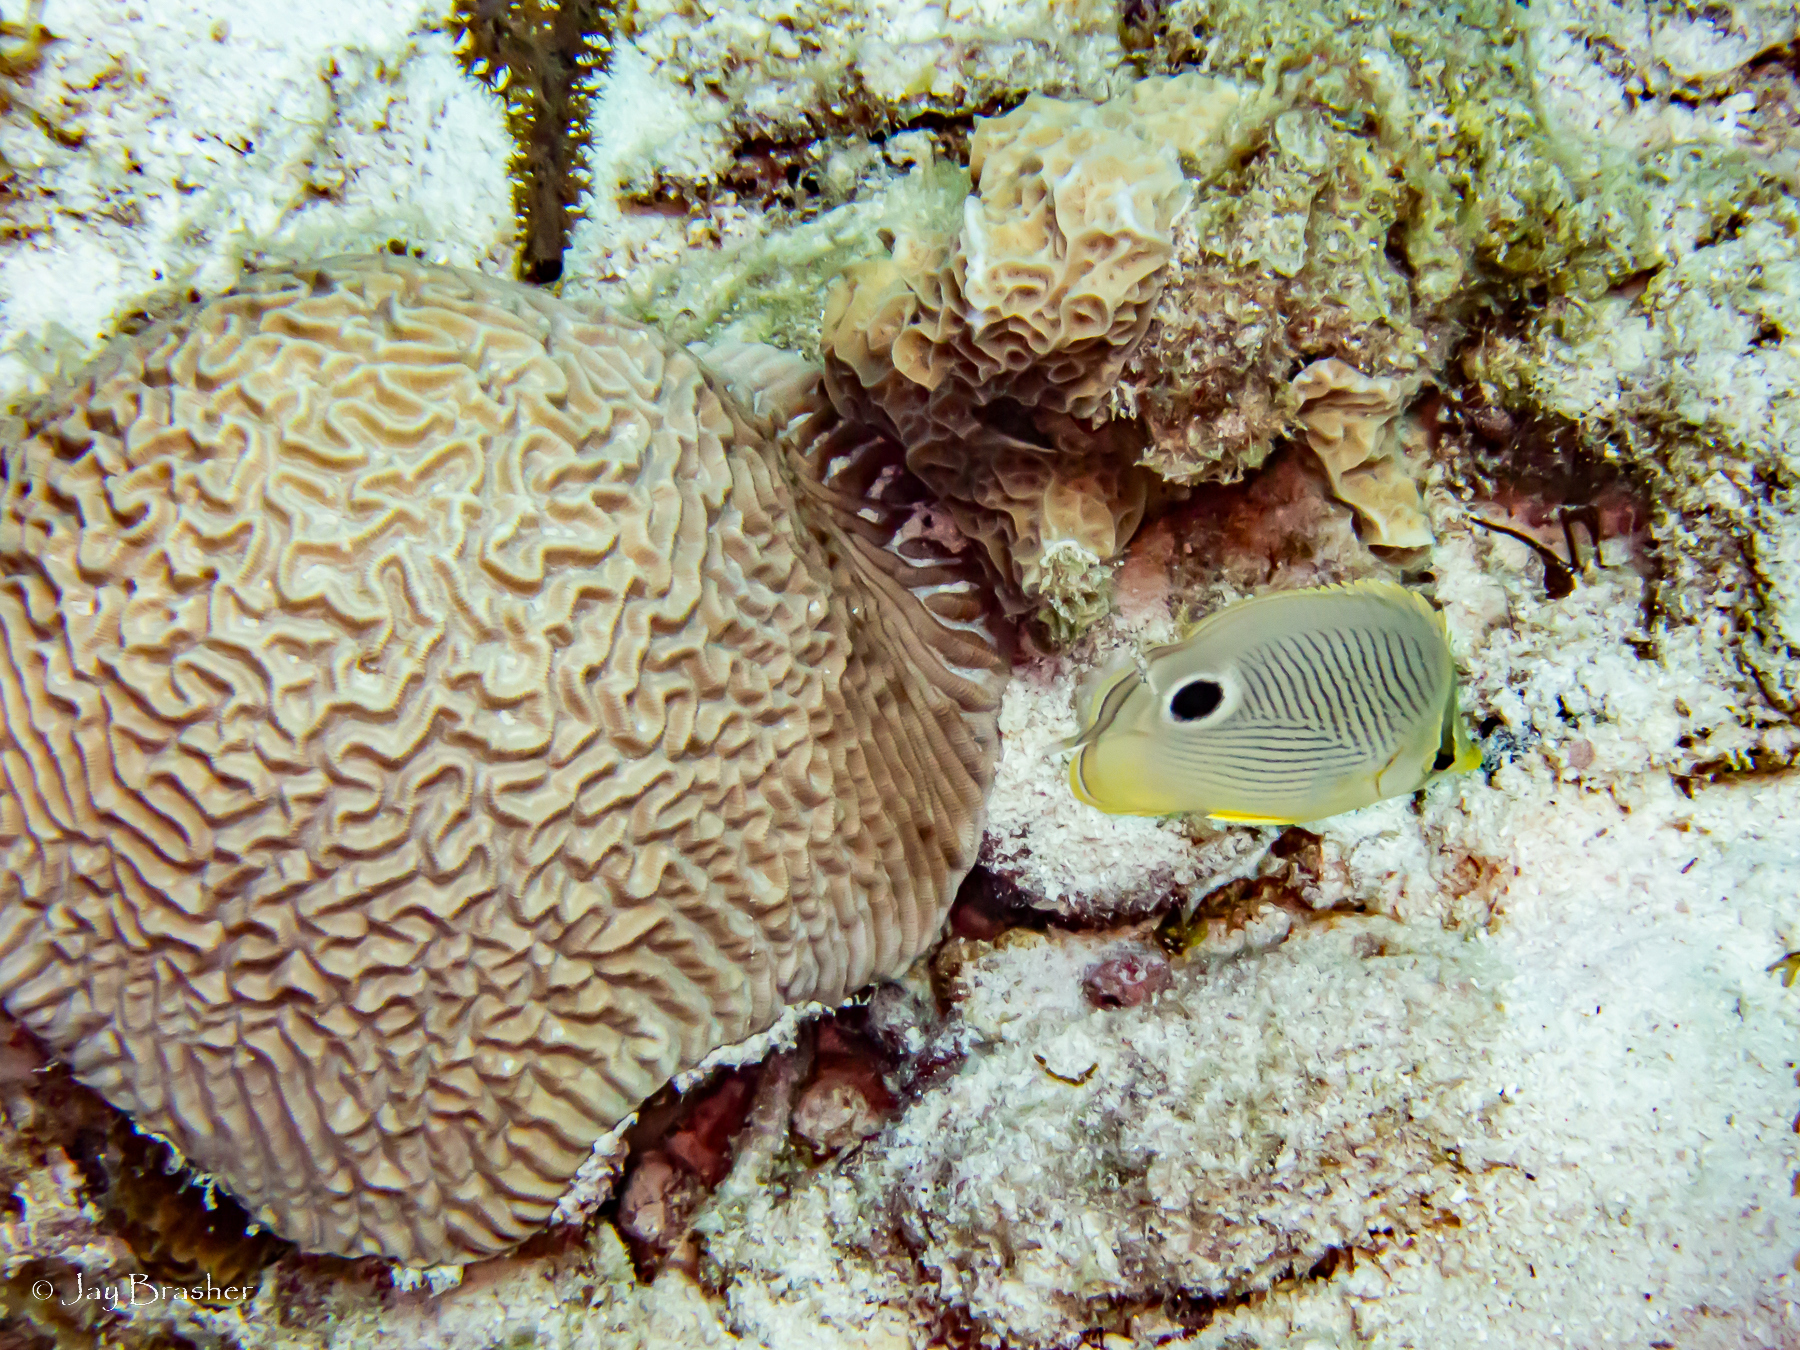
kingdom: Animalia
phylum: Chordata
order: Perciformes
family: Chaetodontidae
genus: Chaetodon
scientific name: Chaetodon capistratus
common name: Kete
